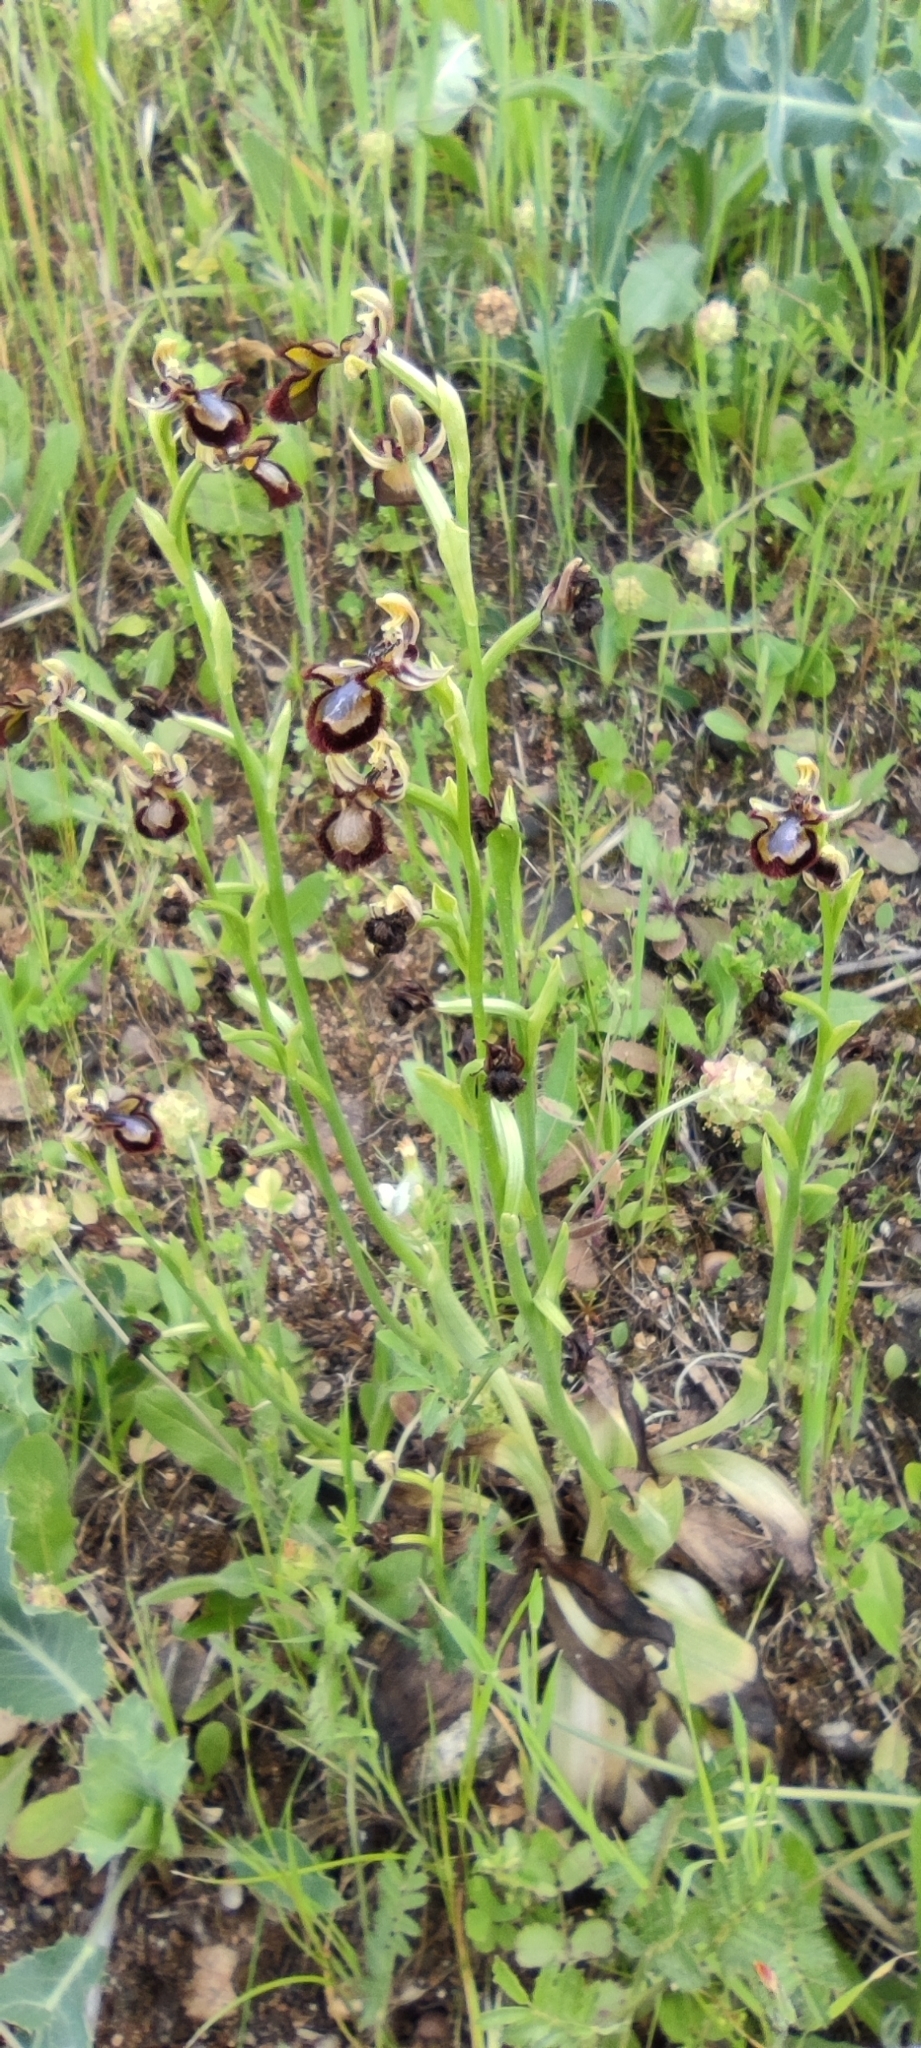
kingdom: Plantae
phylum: Tracheophyta
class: Liliopsida
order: Asparagales
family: Orchidaceae
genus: Ophrys
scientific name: Ophrys speculum
